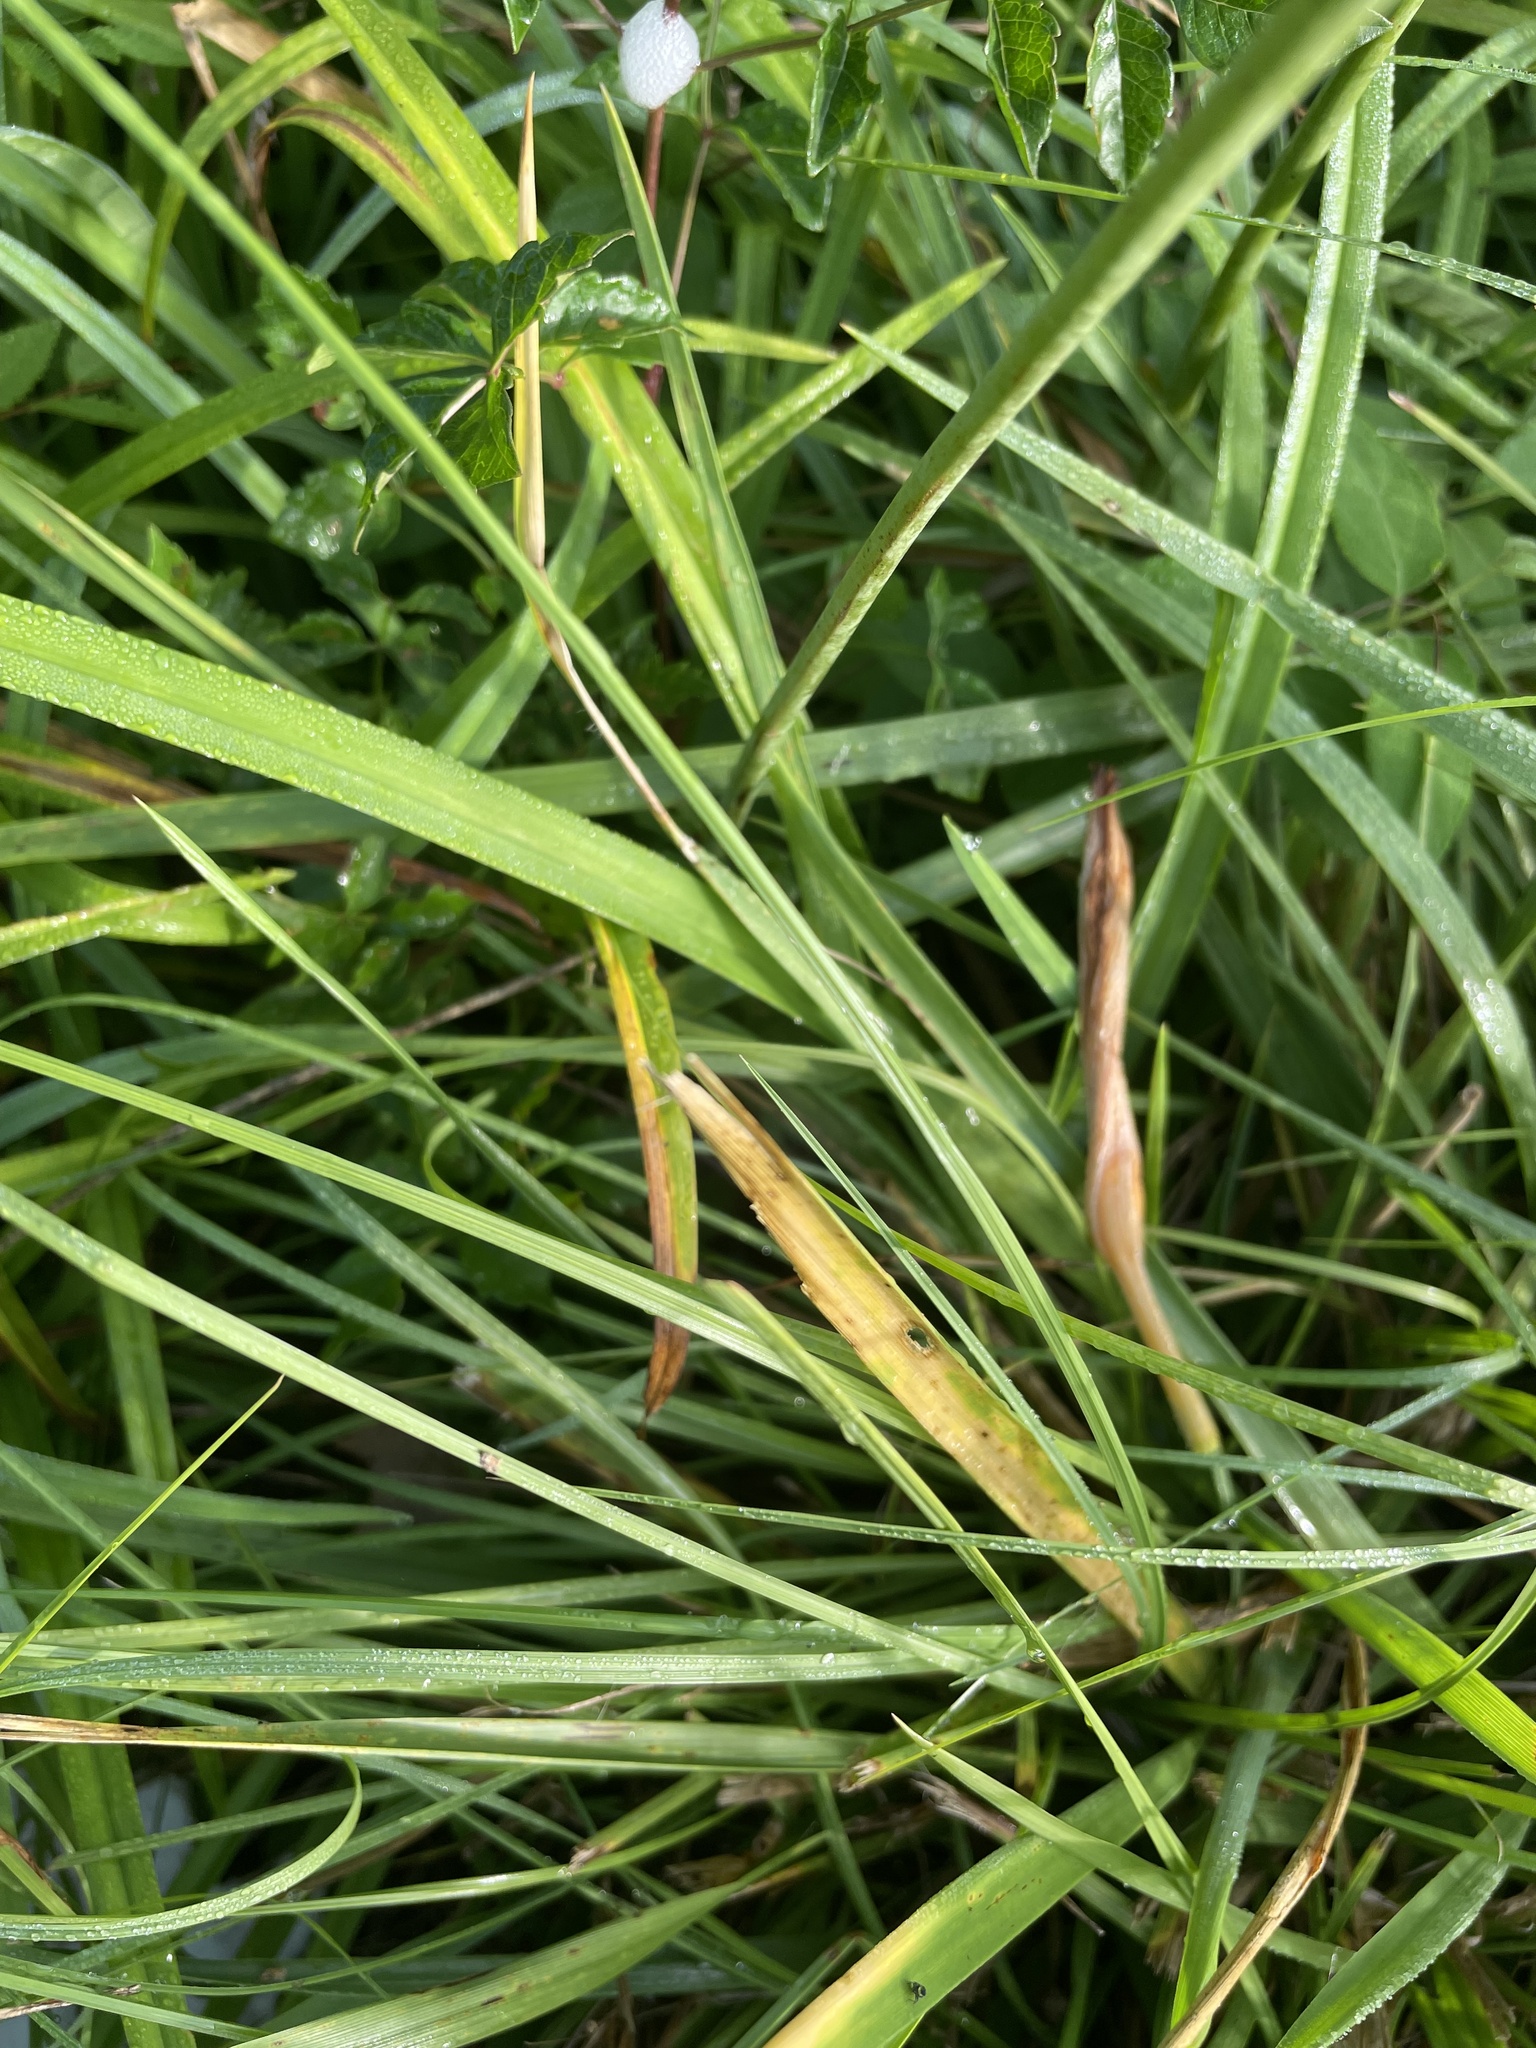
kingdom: Plantae
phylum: Tracheophyta
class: Liliopsida
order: Asparagales
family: Asphodelaceae
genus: Hemerocallis
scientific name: Hemerocallis fulva
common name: Orange day-lily
